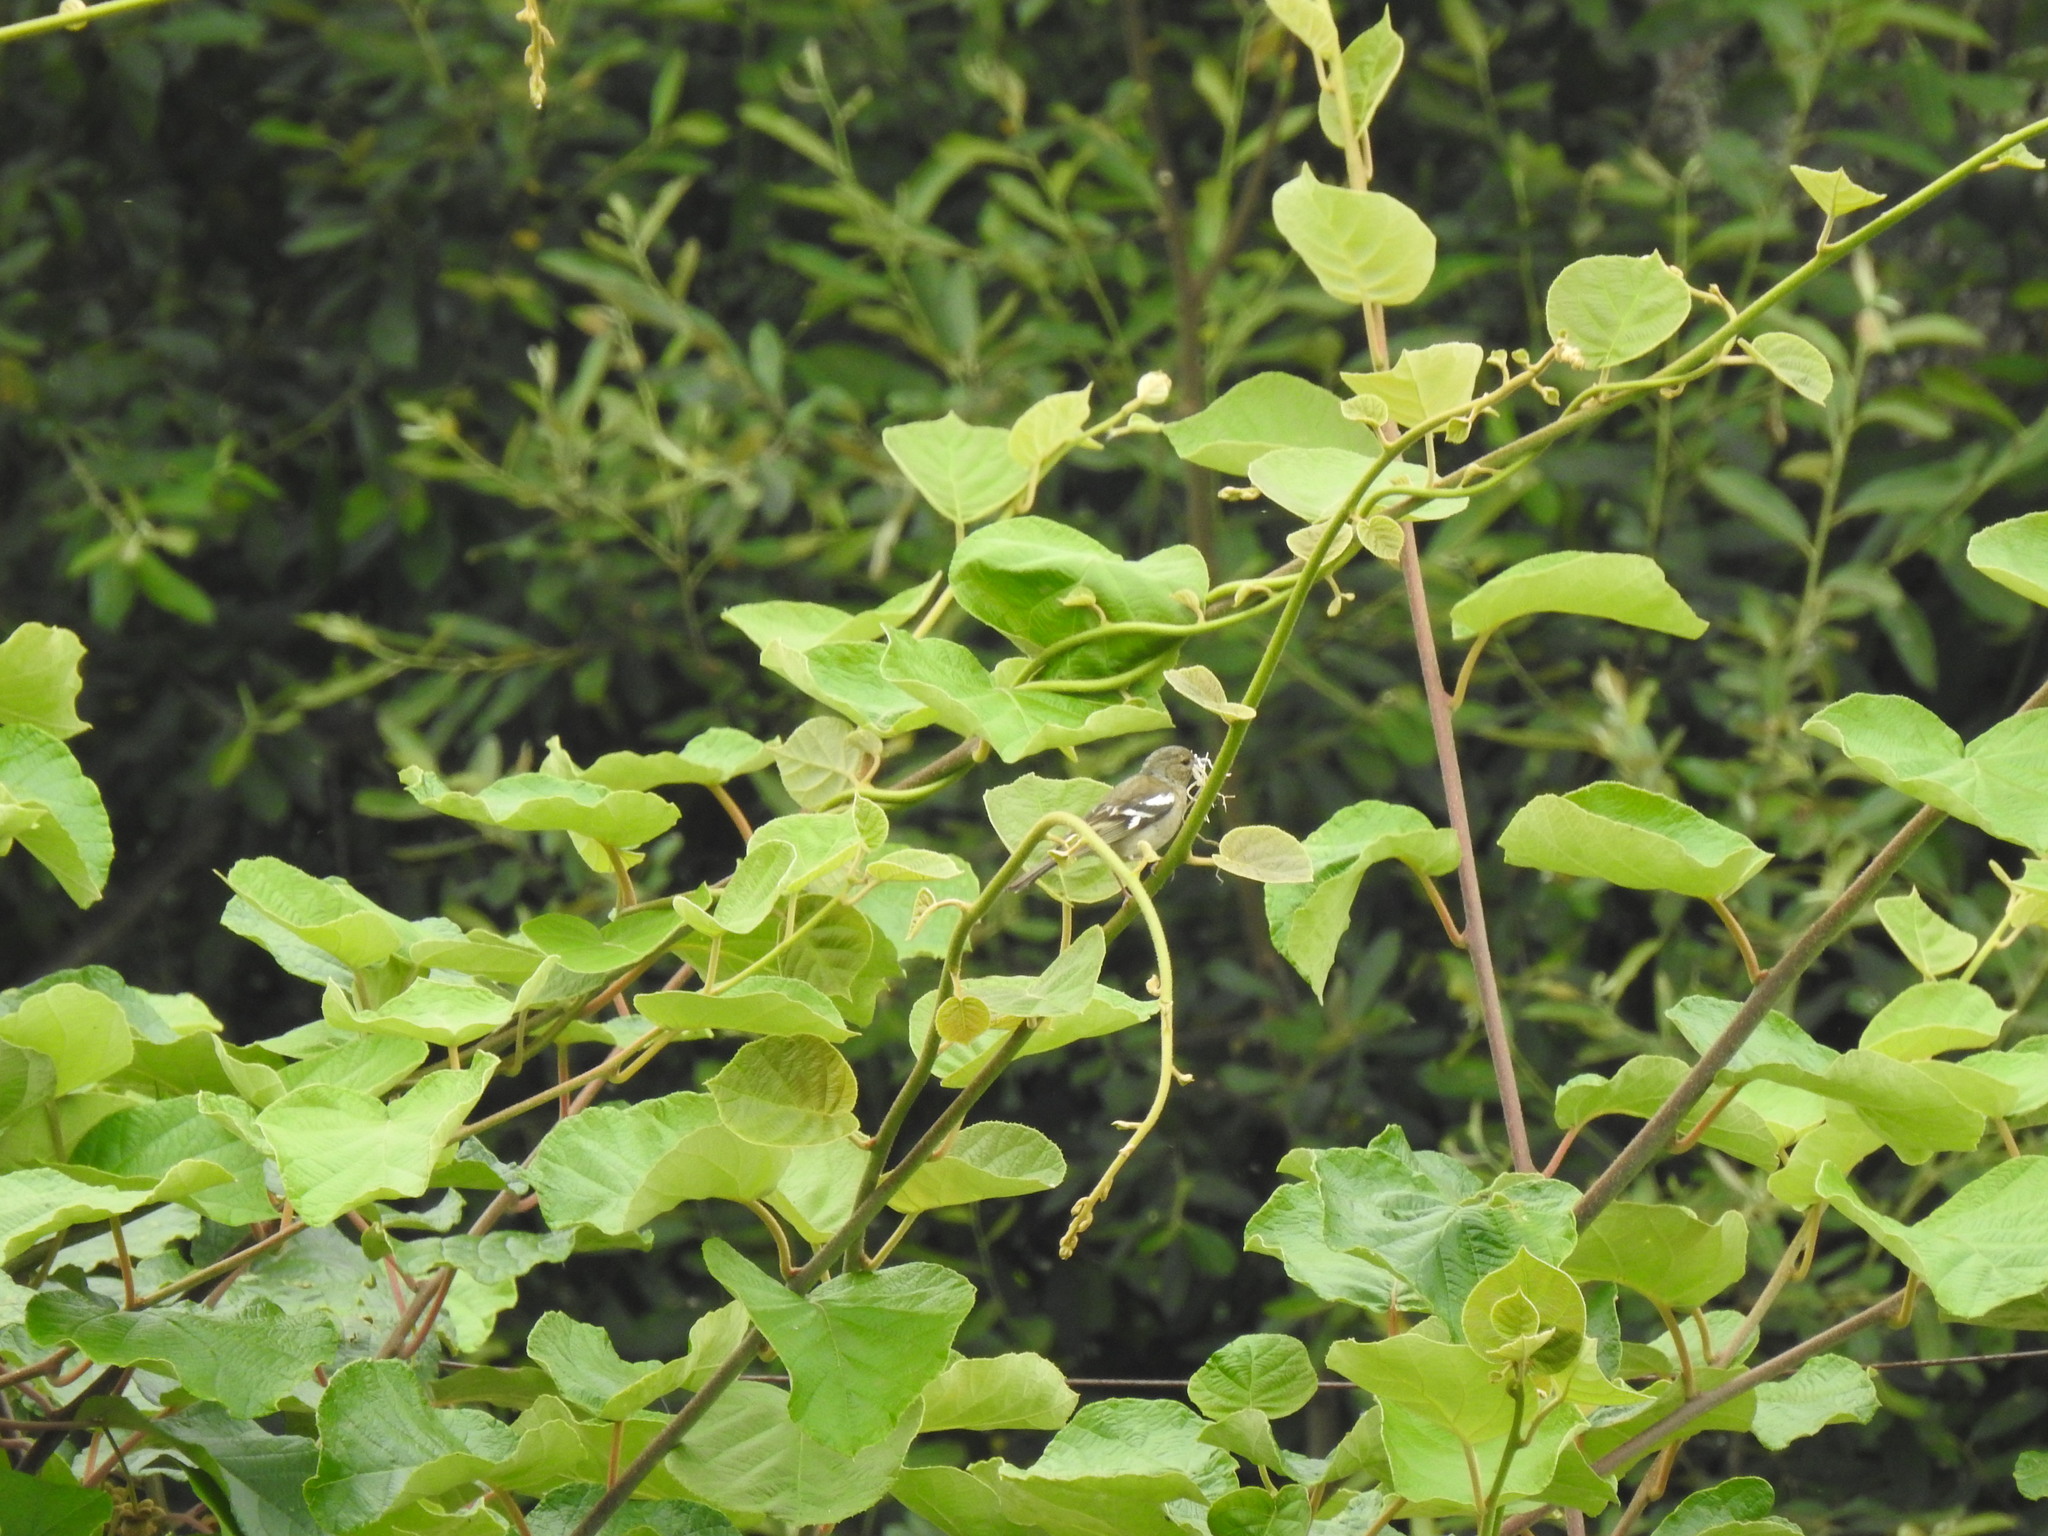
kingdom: Animalia
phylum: Chordata
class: Aves
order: Passeriformes
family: Fringillidae
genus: Fringilla
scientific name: Fringilla coelebs
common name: Common chaffinch
